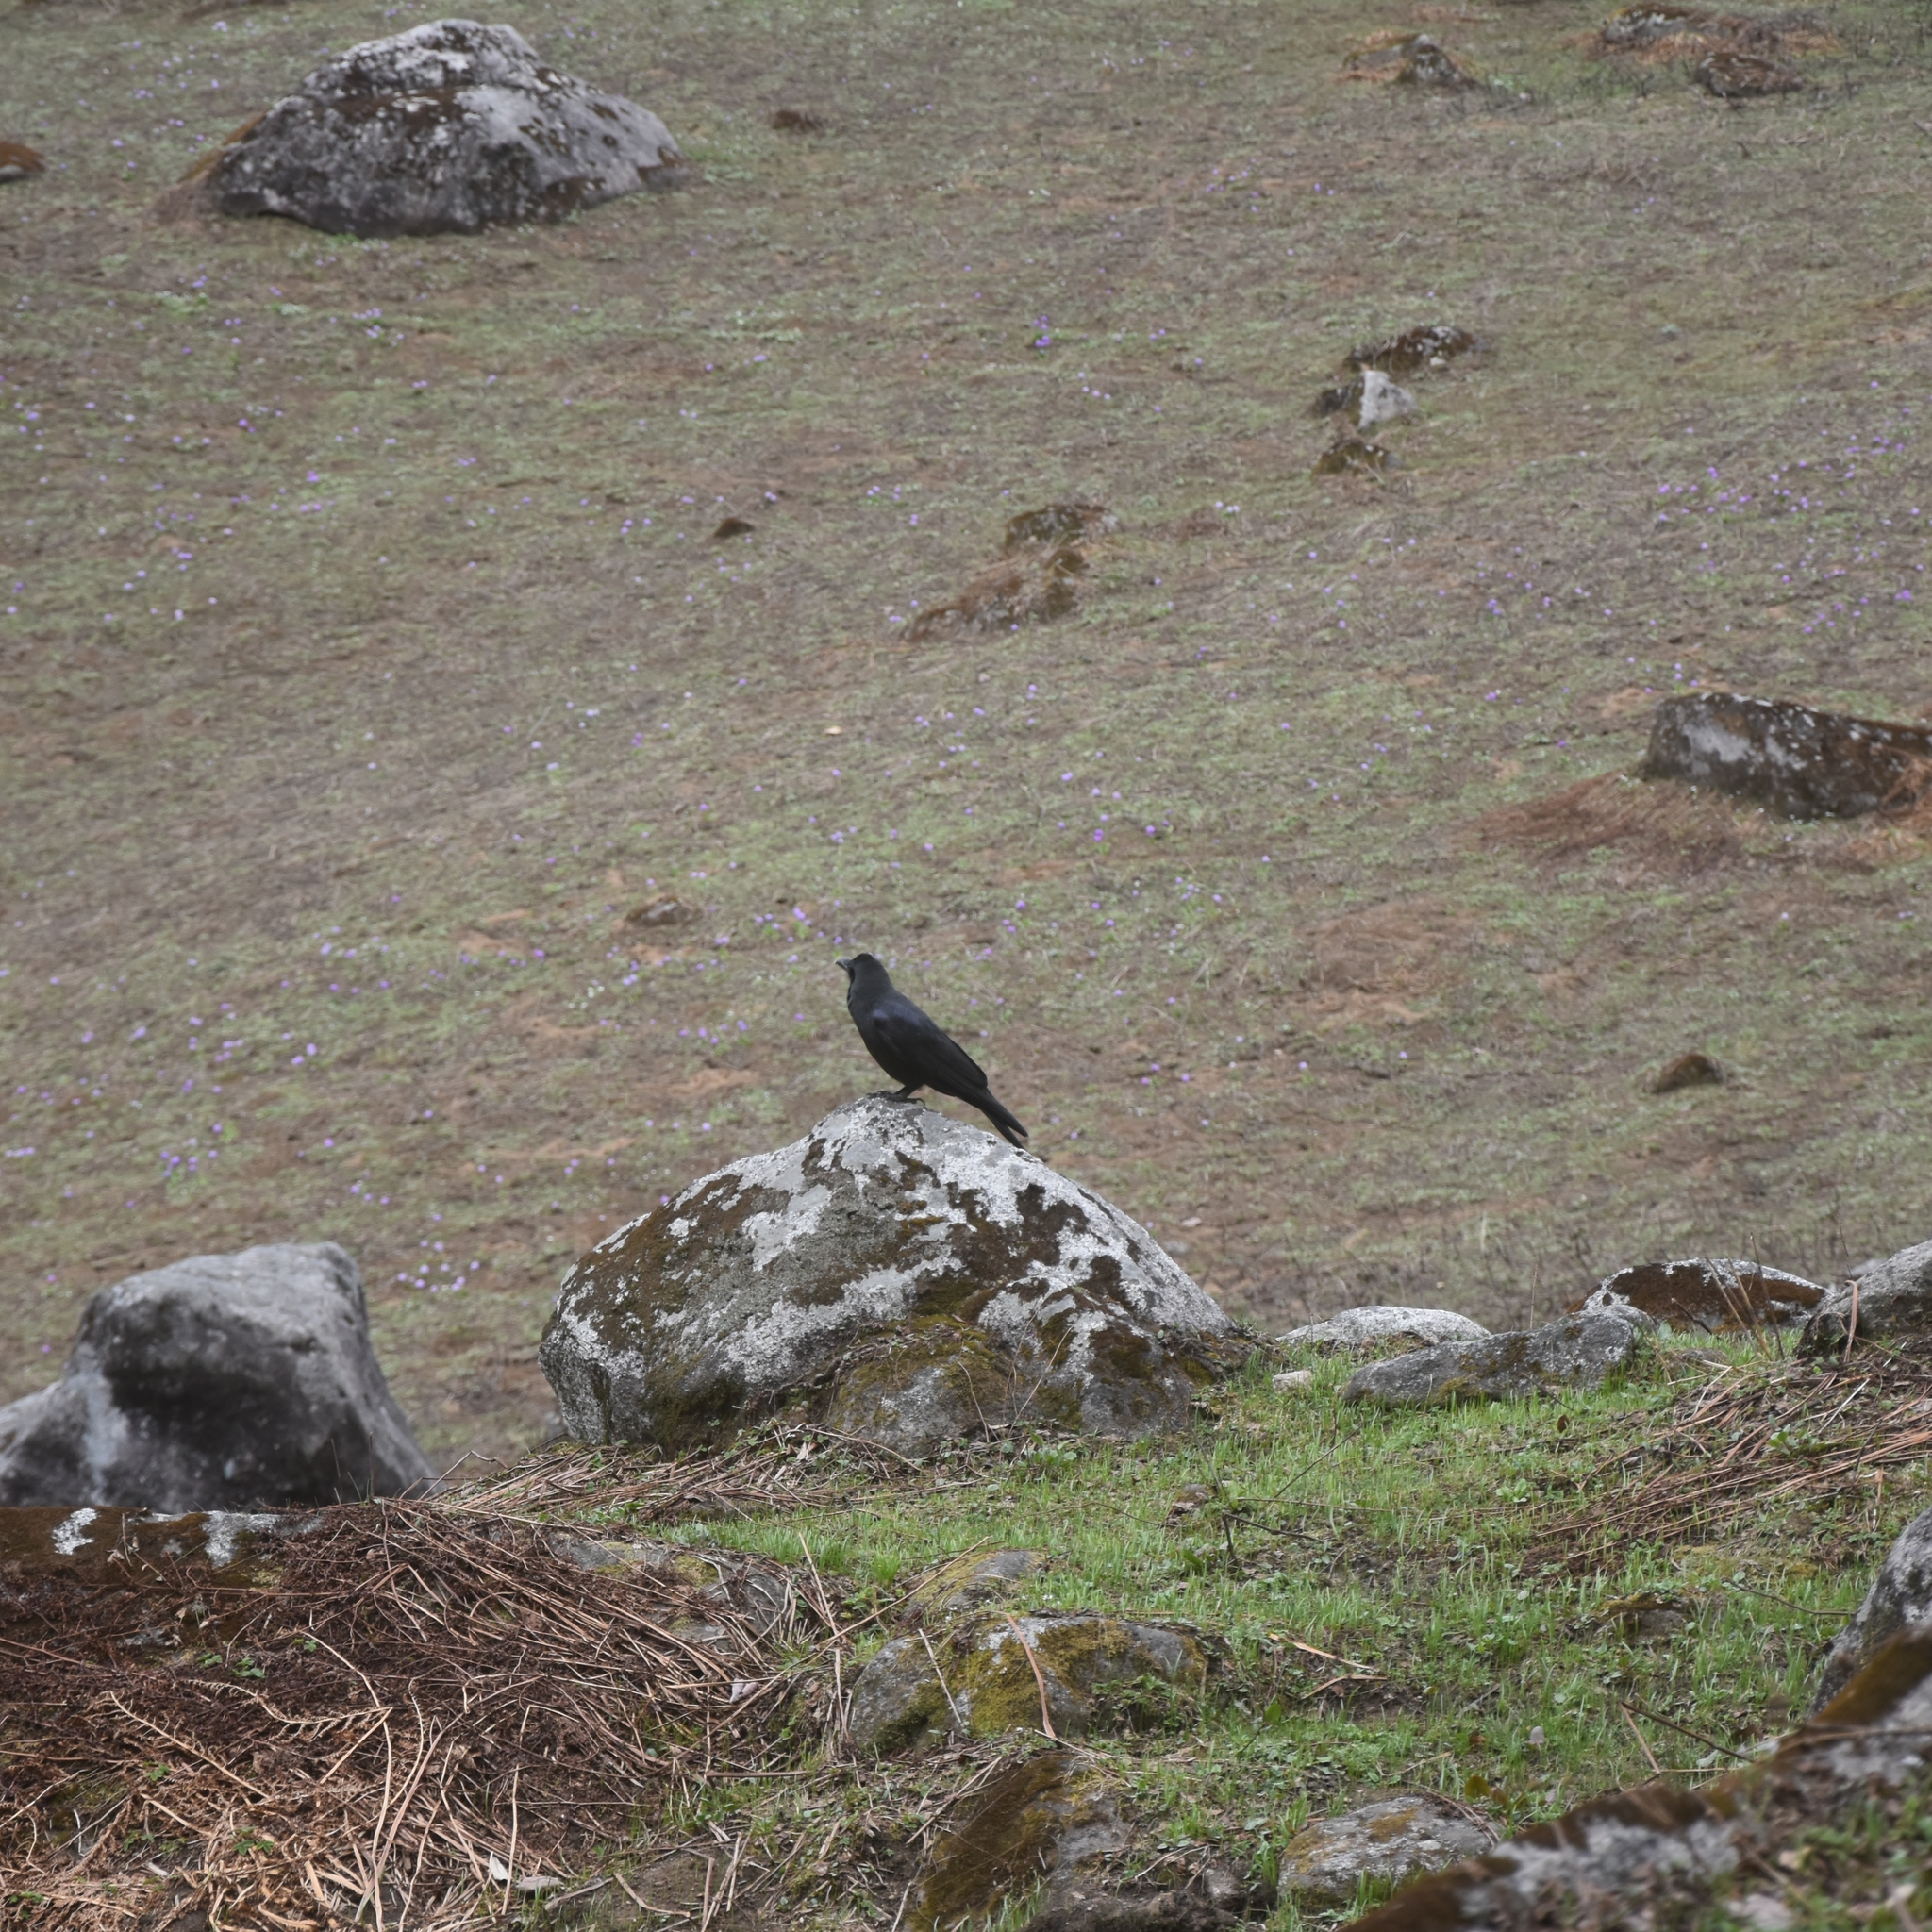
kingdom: Animalia
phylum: Chordata
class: Aves
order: Passeriformes
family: Corvidae
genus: Corvus
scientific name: Corvus macrorhynchos
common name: Large-billed crow
